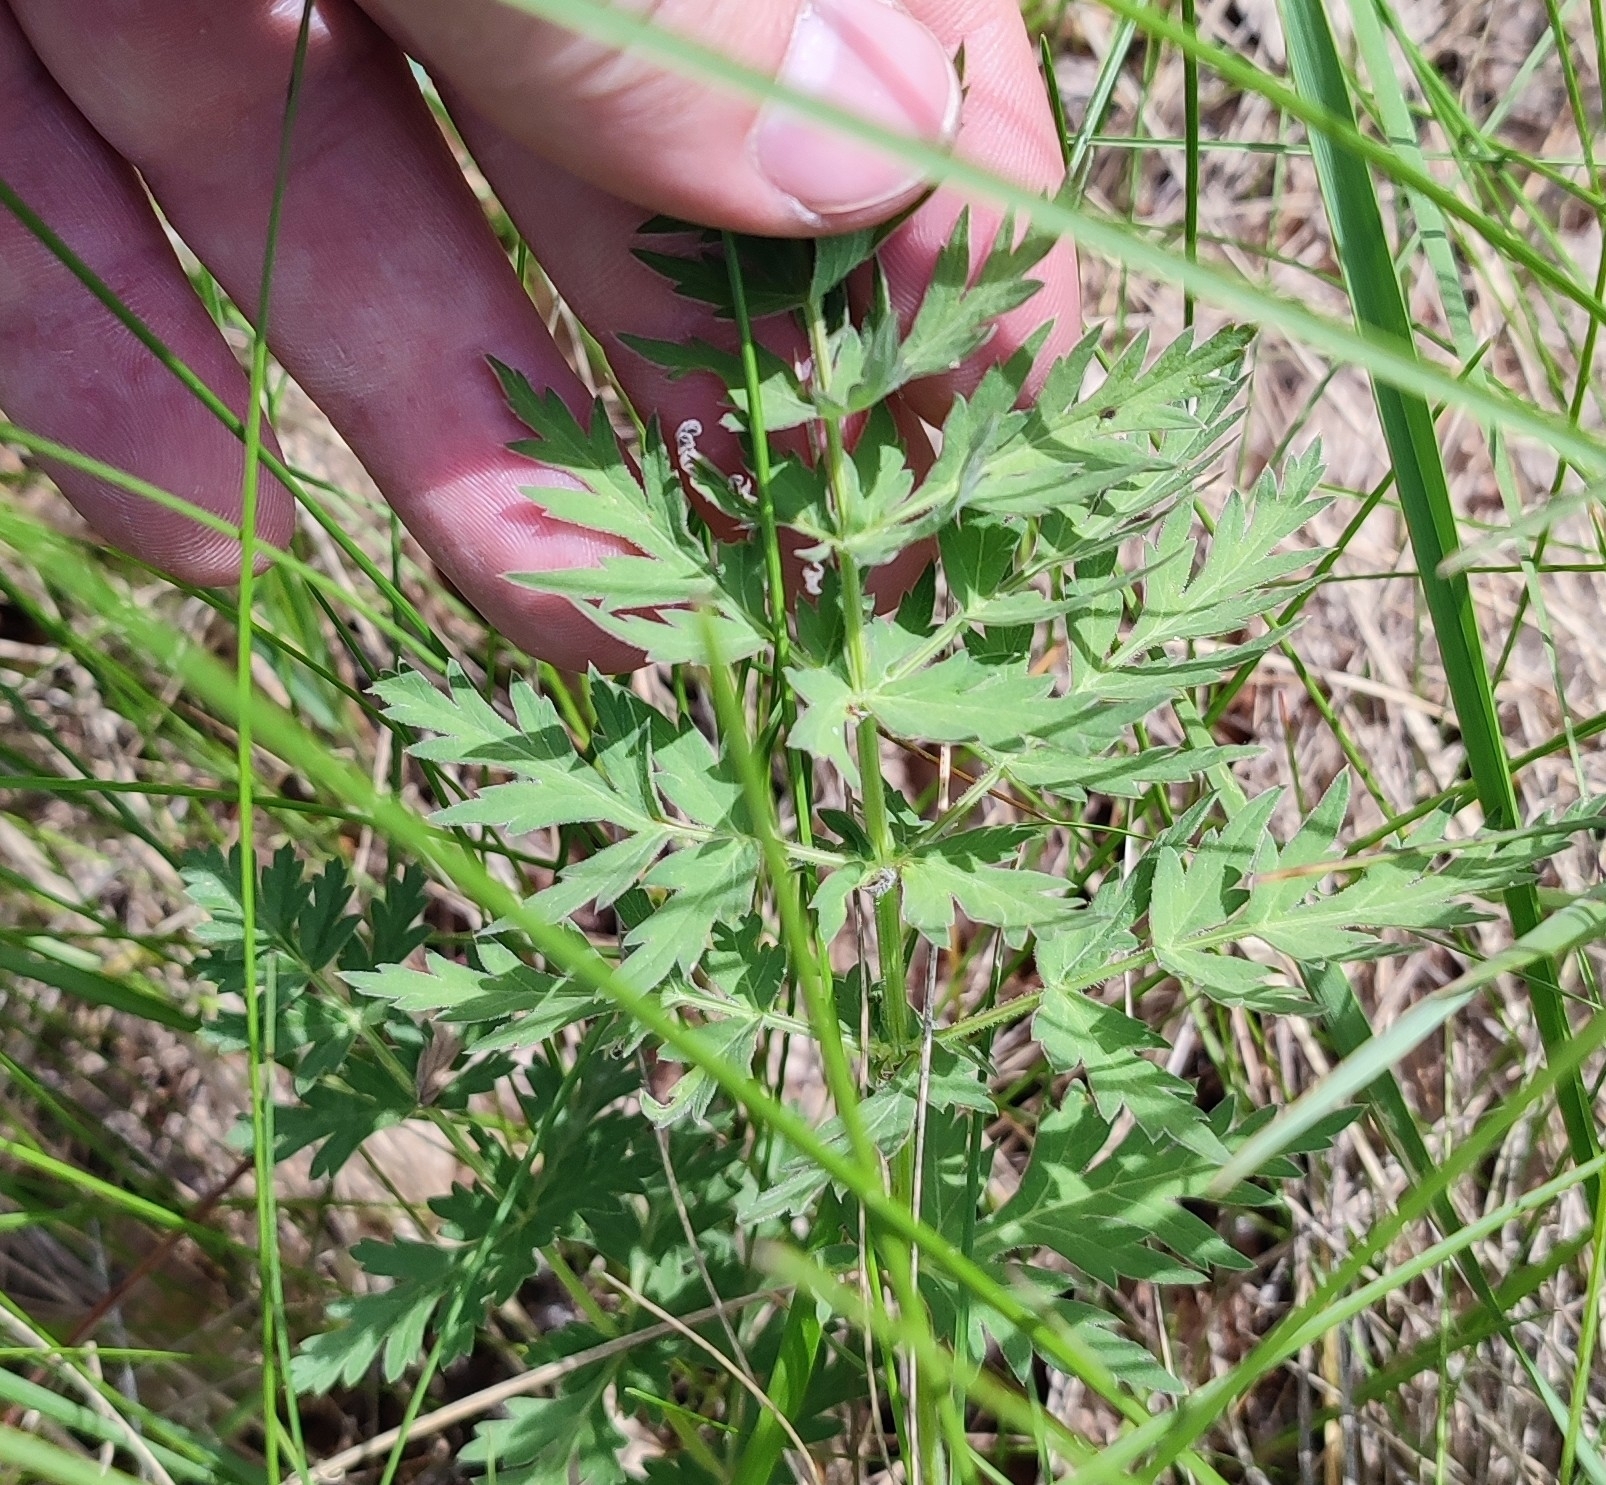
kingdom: Plantae
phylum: Tracheophyta
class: Magnoliopsida
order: Apiales
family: Apiaceae
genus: Seseli
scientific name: Seseli libanotis
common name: Mooncarrot
